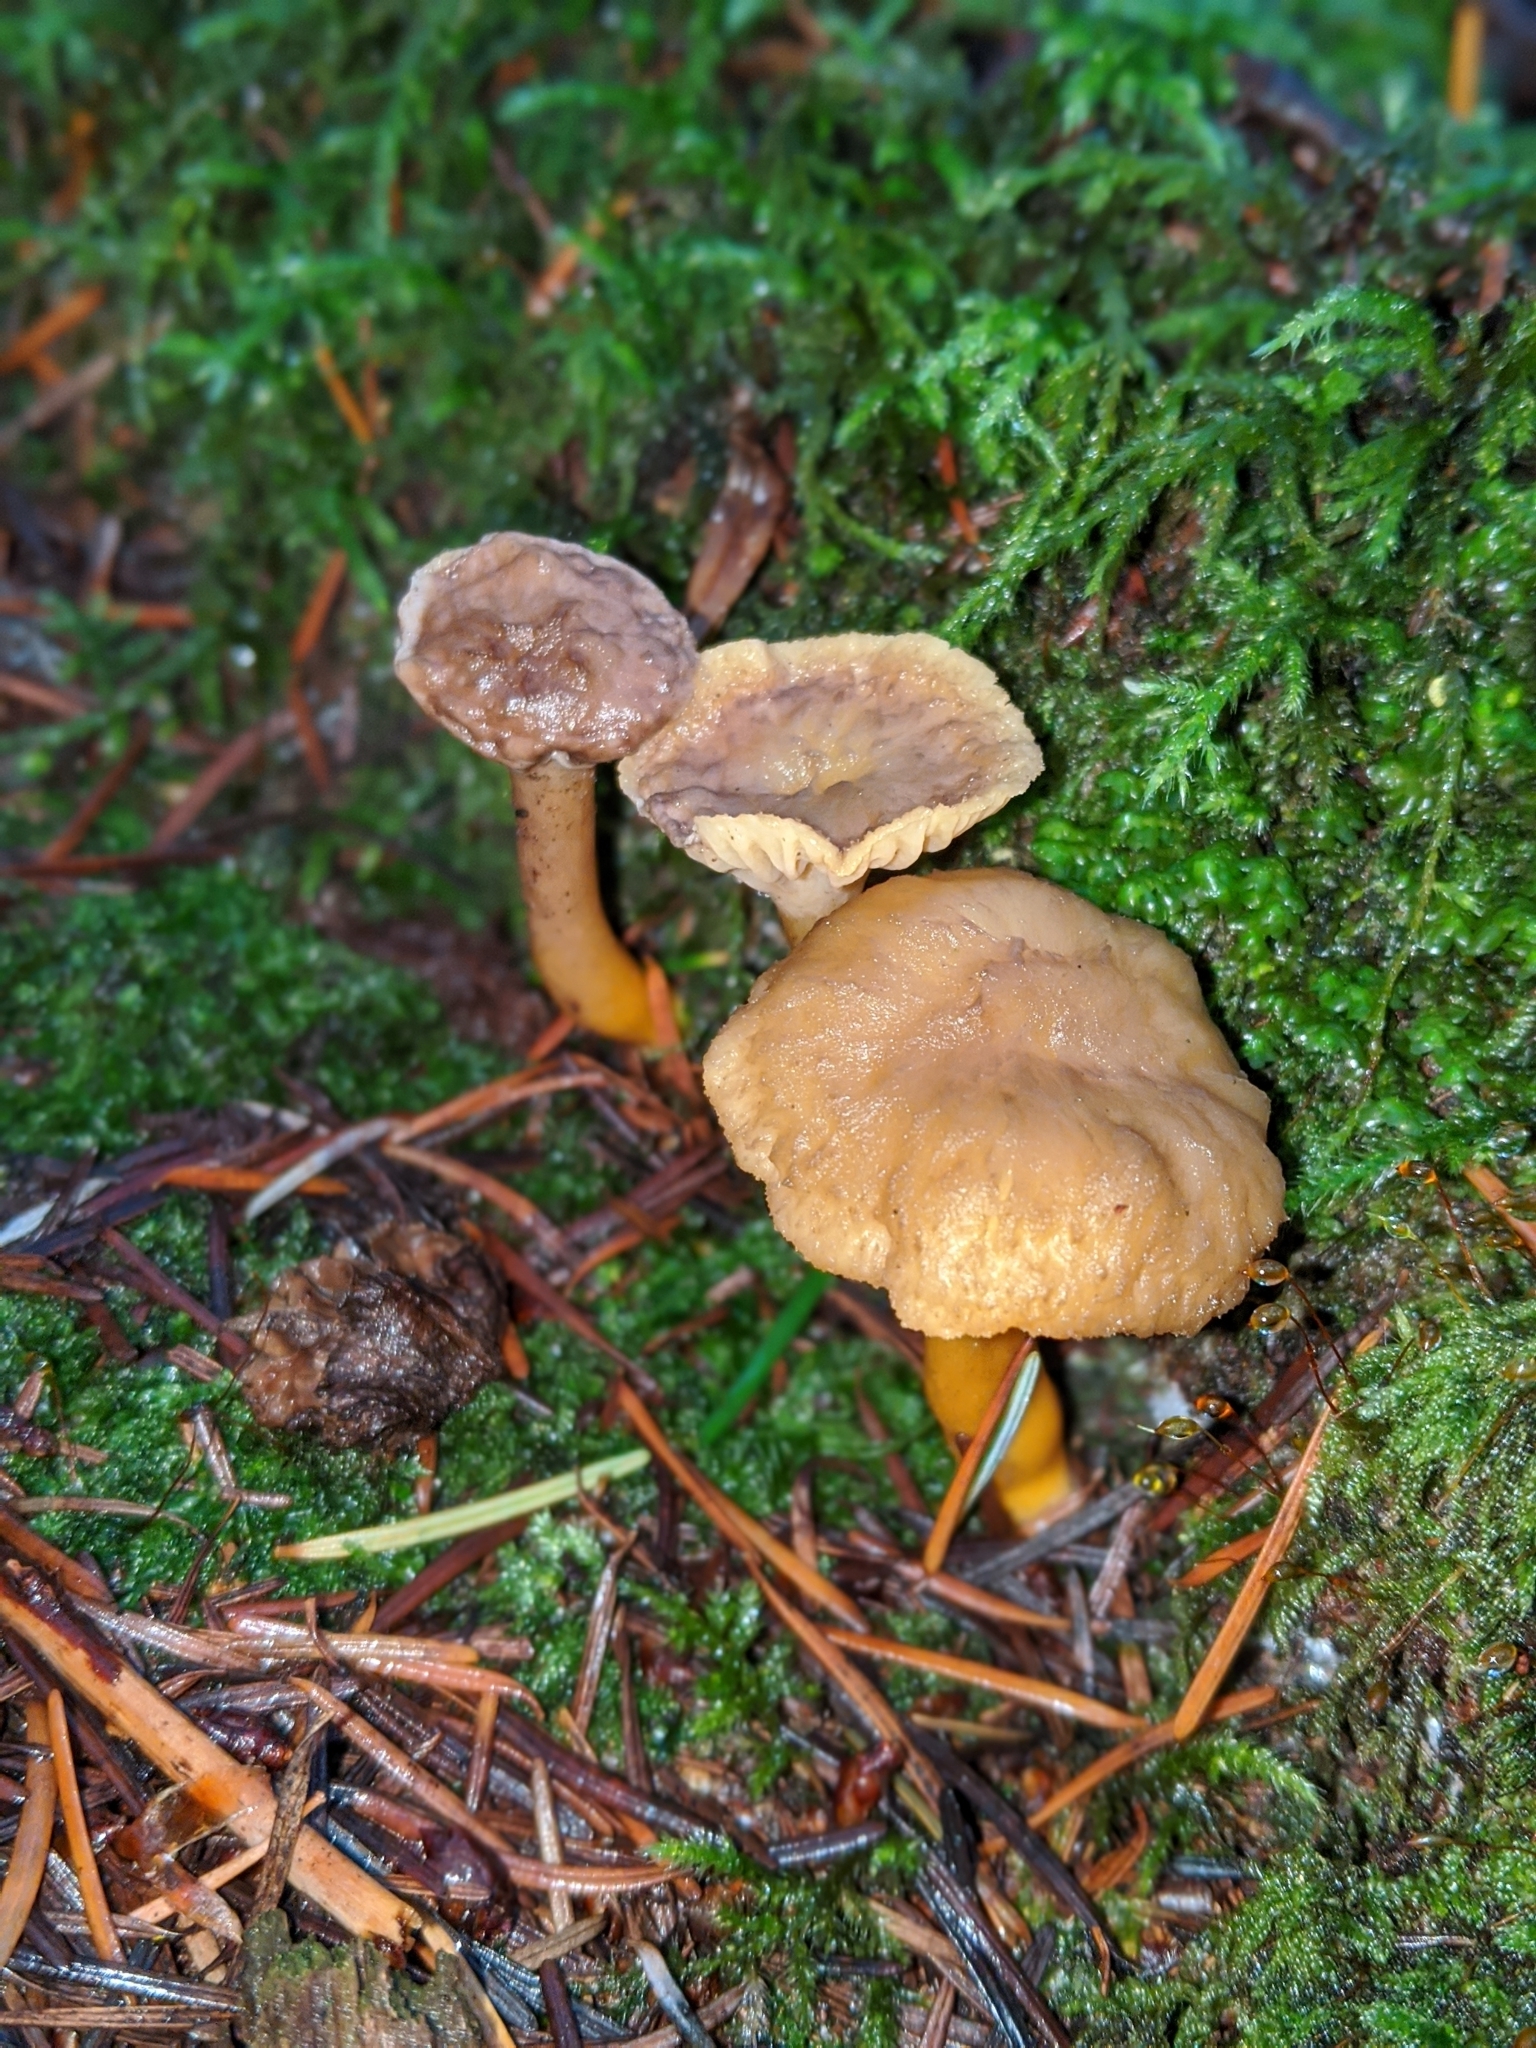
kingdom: Fungi
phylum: Basidiomycota
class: Agaricomycetes
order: Cantharellales
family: Hydnaceae
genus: Craterellus
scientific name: Craterellus tubaeformis
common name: Yellowfoot
